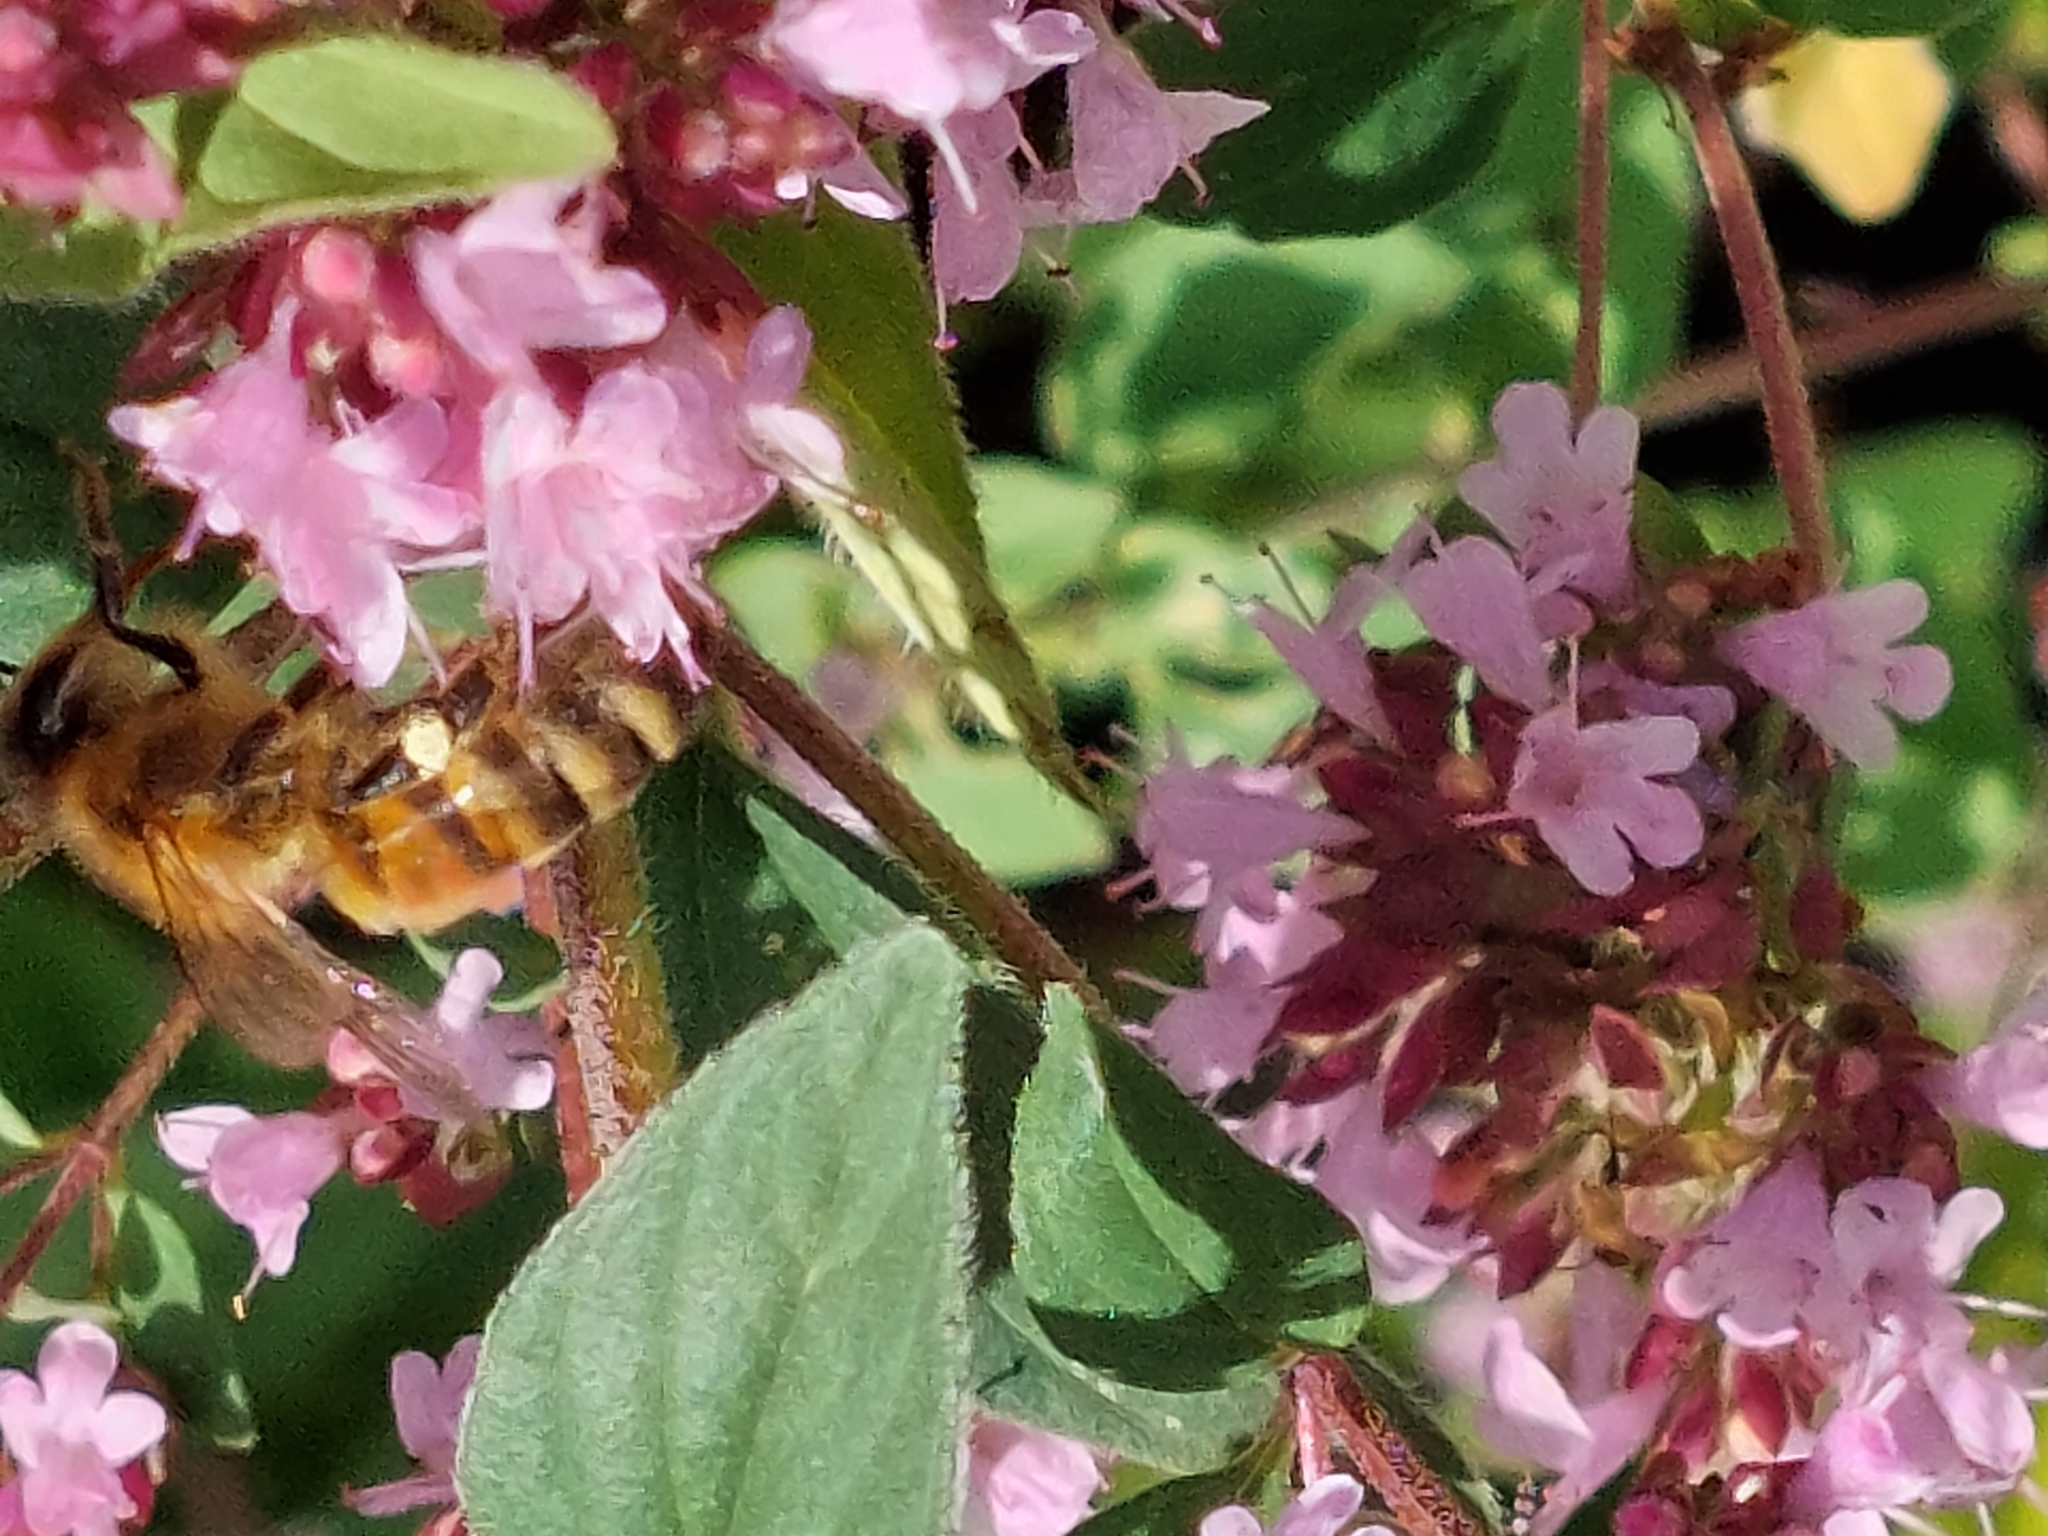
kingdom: Animalia
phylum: Arthropoda
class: Insecta
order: Hymenoptera
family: Apidae
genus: Apis
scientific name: Apis mellifera
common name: Honey bee
